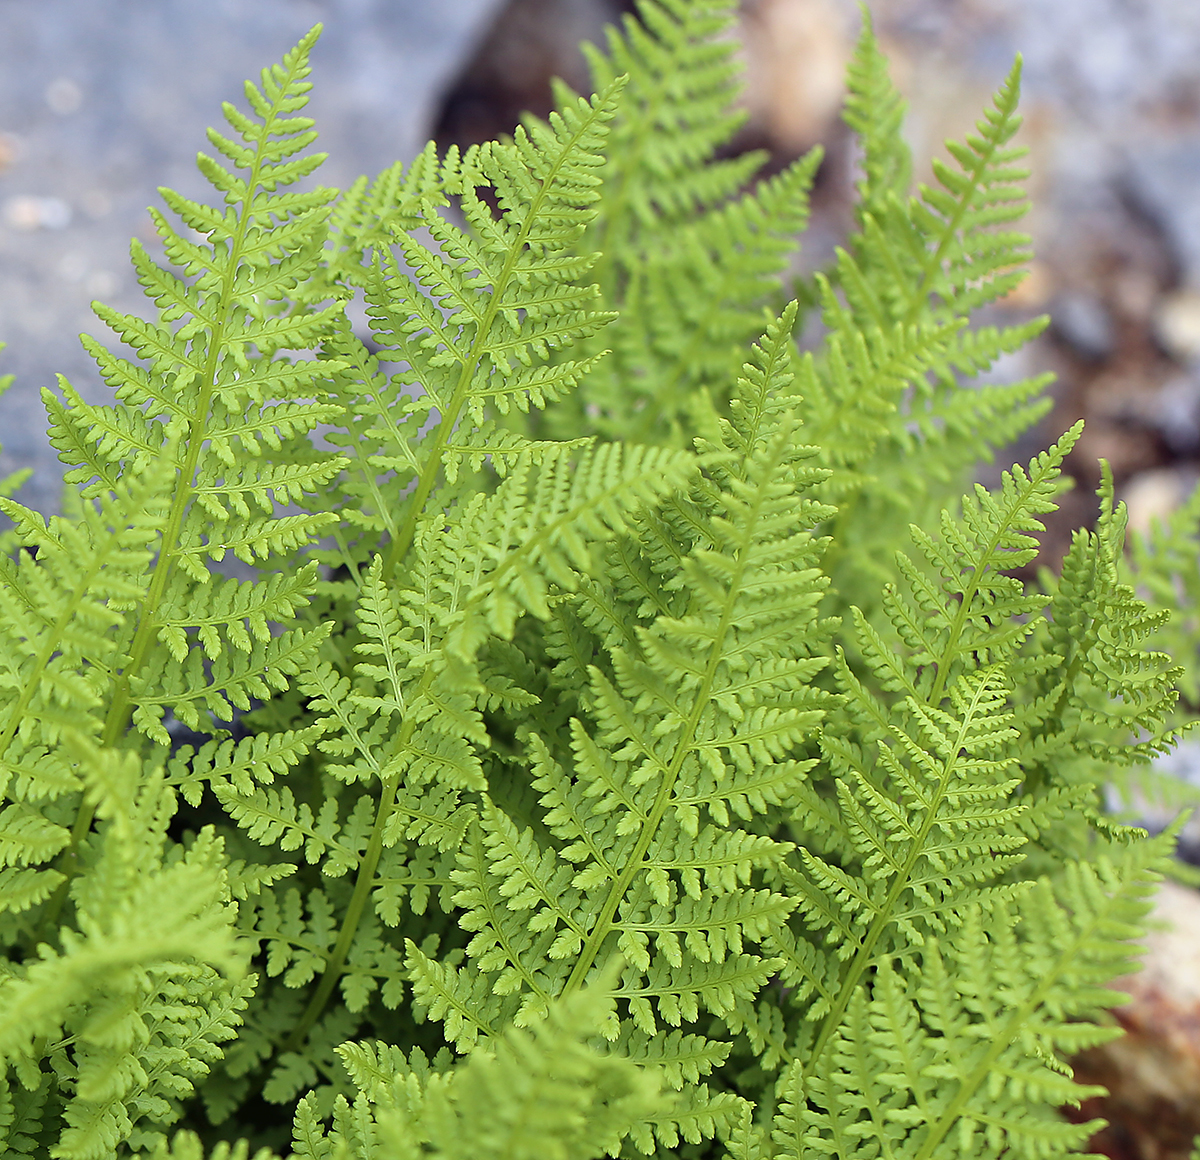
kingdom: Plantae
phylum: Tracheophyta
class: Polypodiopsida
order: Polypodiales
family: Athyriaceae
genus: Athyrium
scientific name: Athyrium americanum
